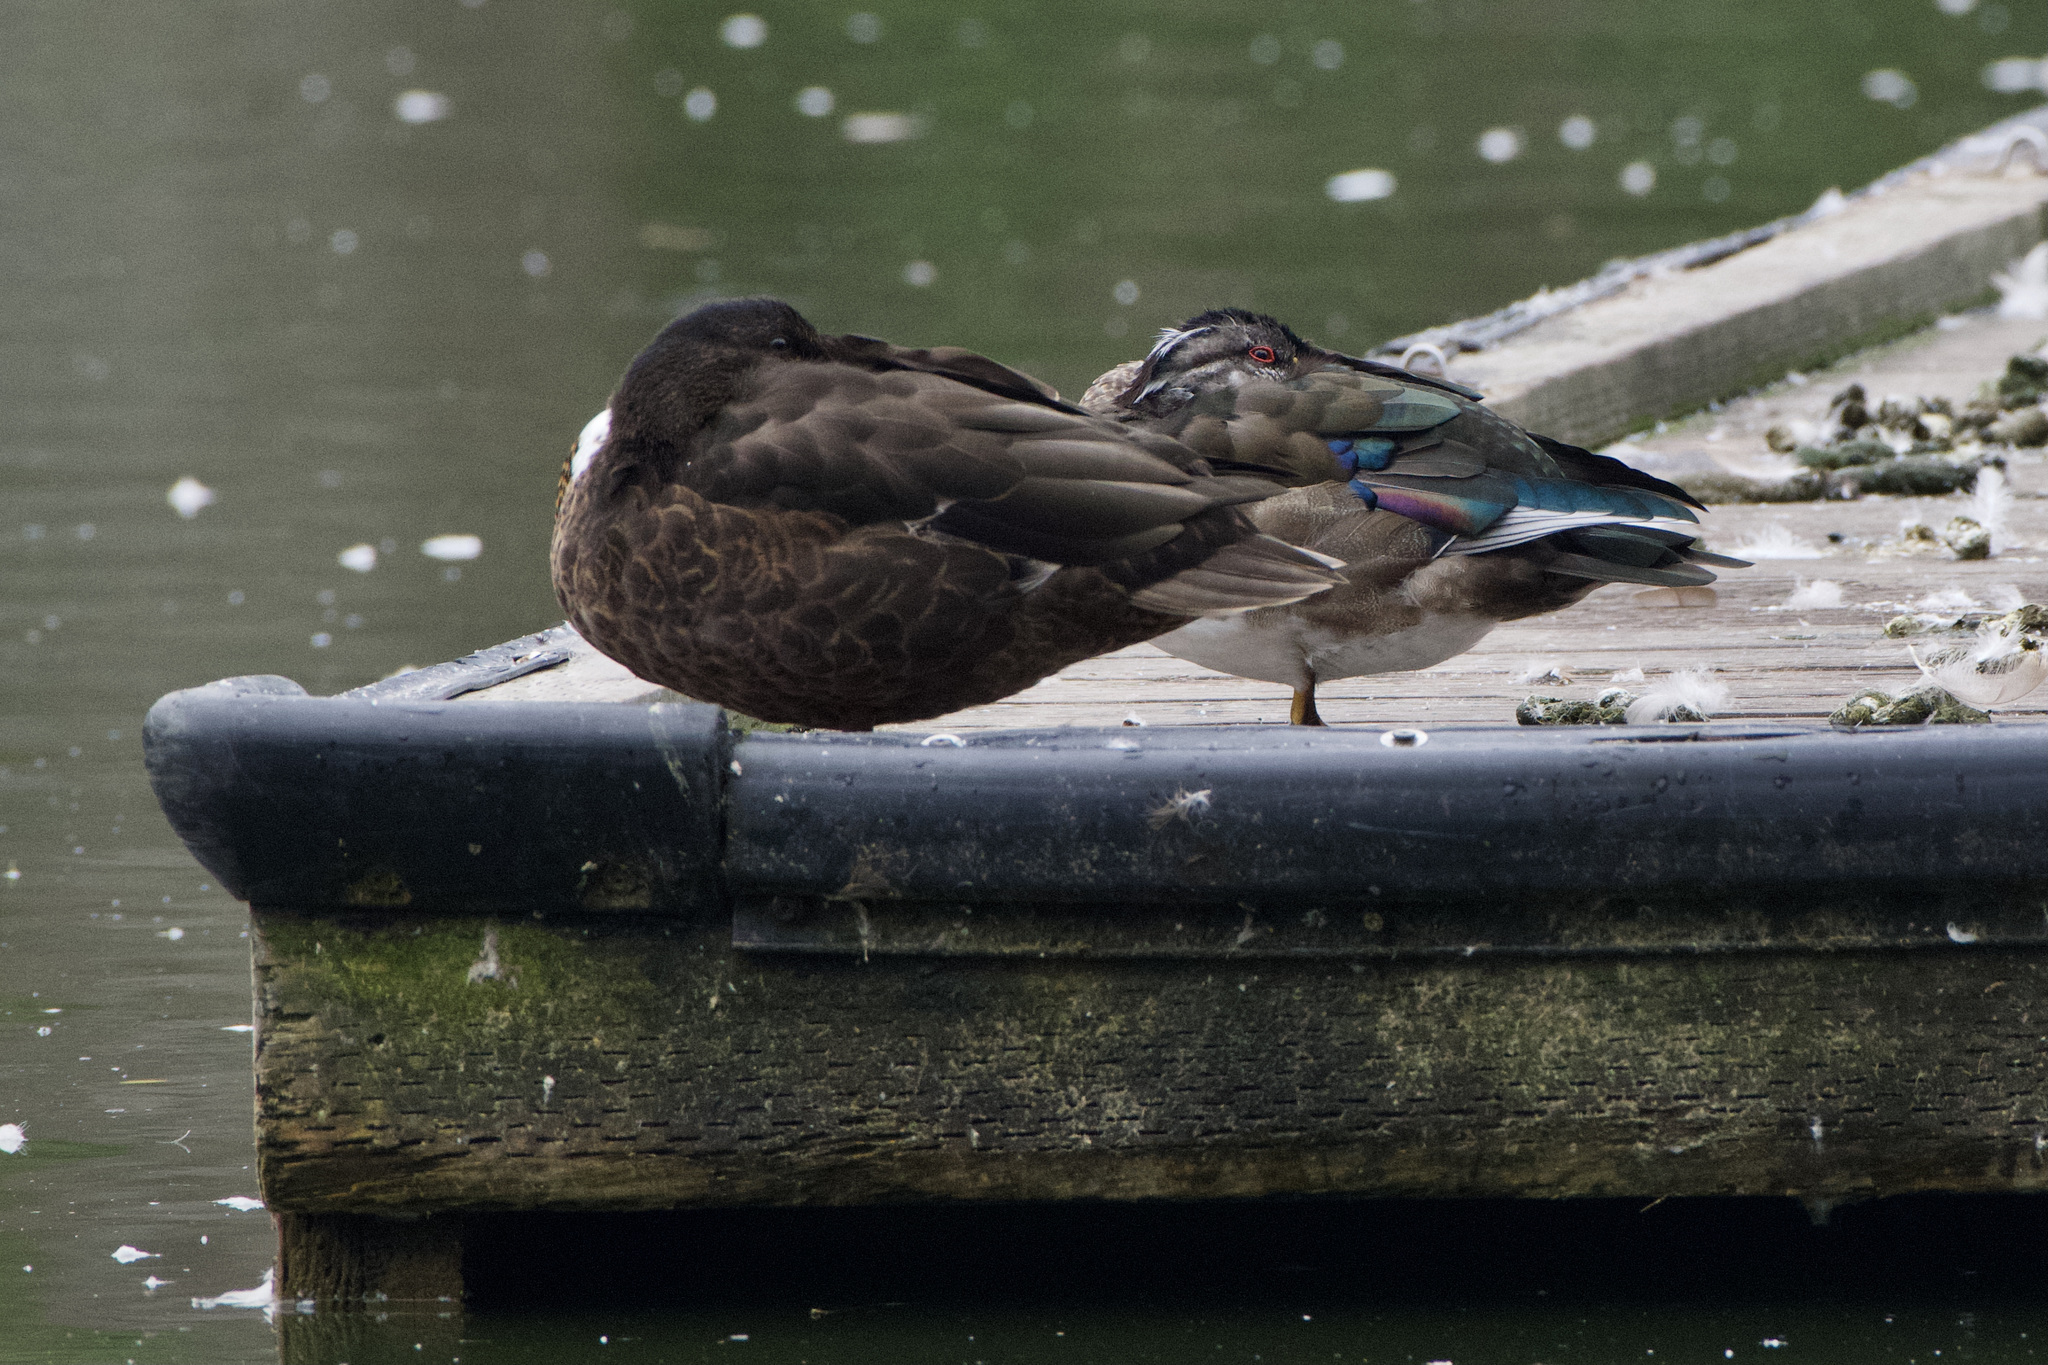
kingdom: Animalia
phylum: Chordata
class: Aves
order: Anseriformes
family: Anatidae
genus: Aix
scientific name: Aix sponsa
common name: Wood duck
